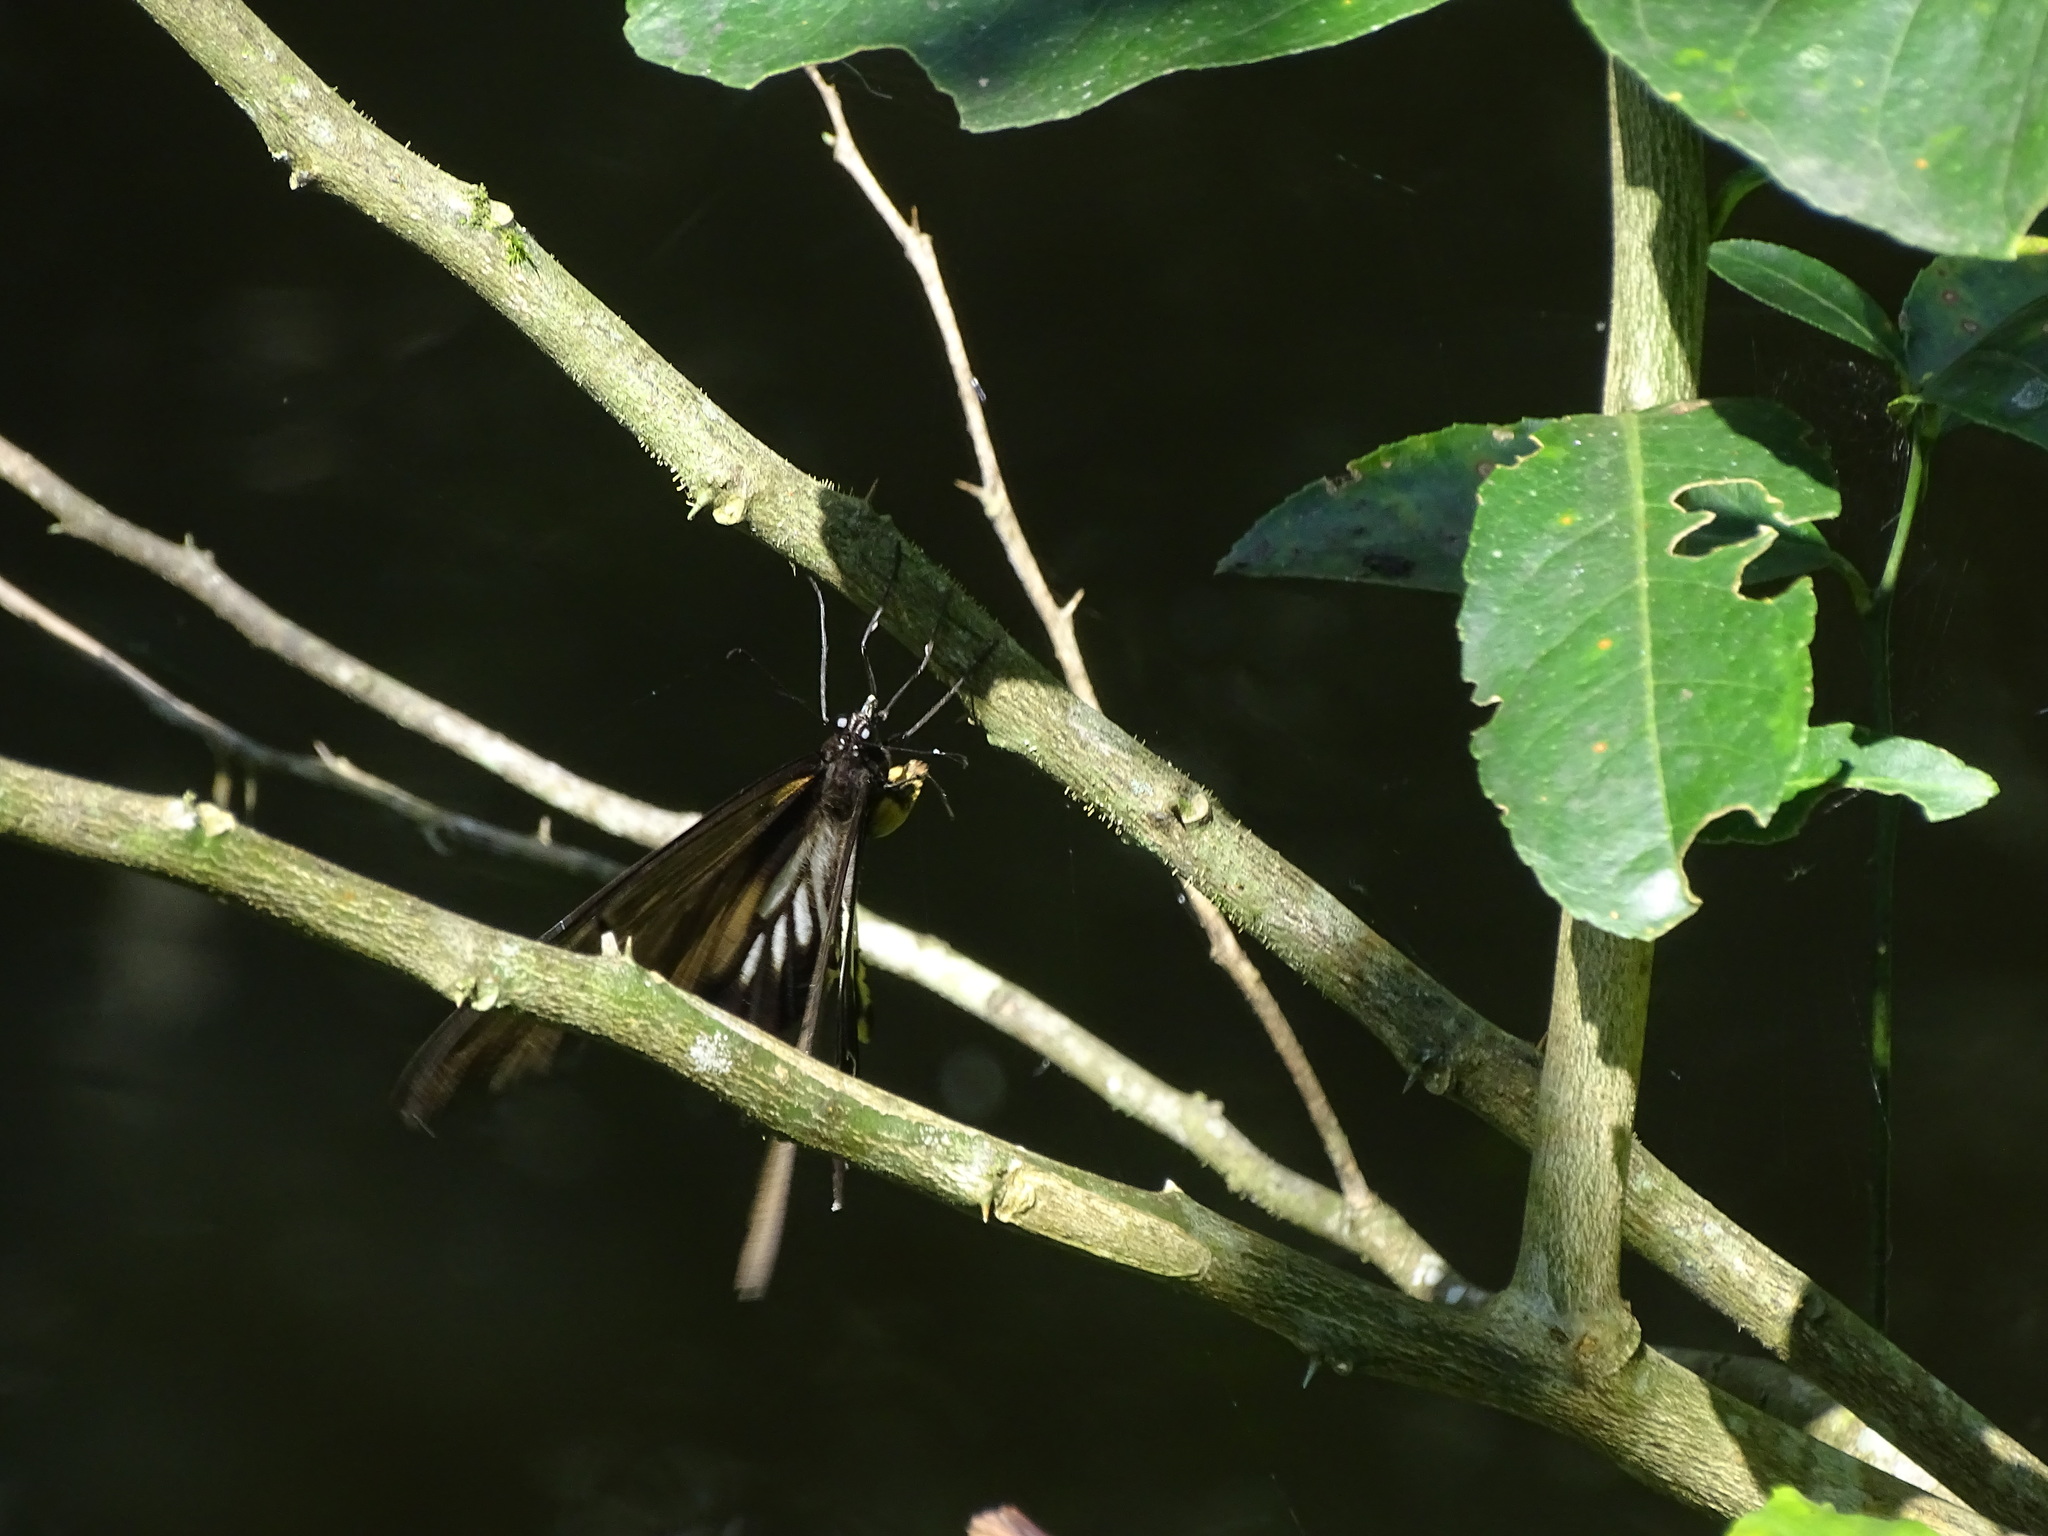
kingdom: Animalia
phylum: Arthropoda
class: Insecta
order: Lepidoptera
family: Papilionidae
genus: Papilio
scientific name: Papilio memnon
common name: Great mormon
